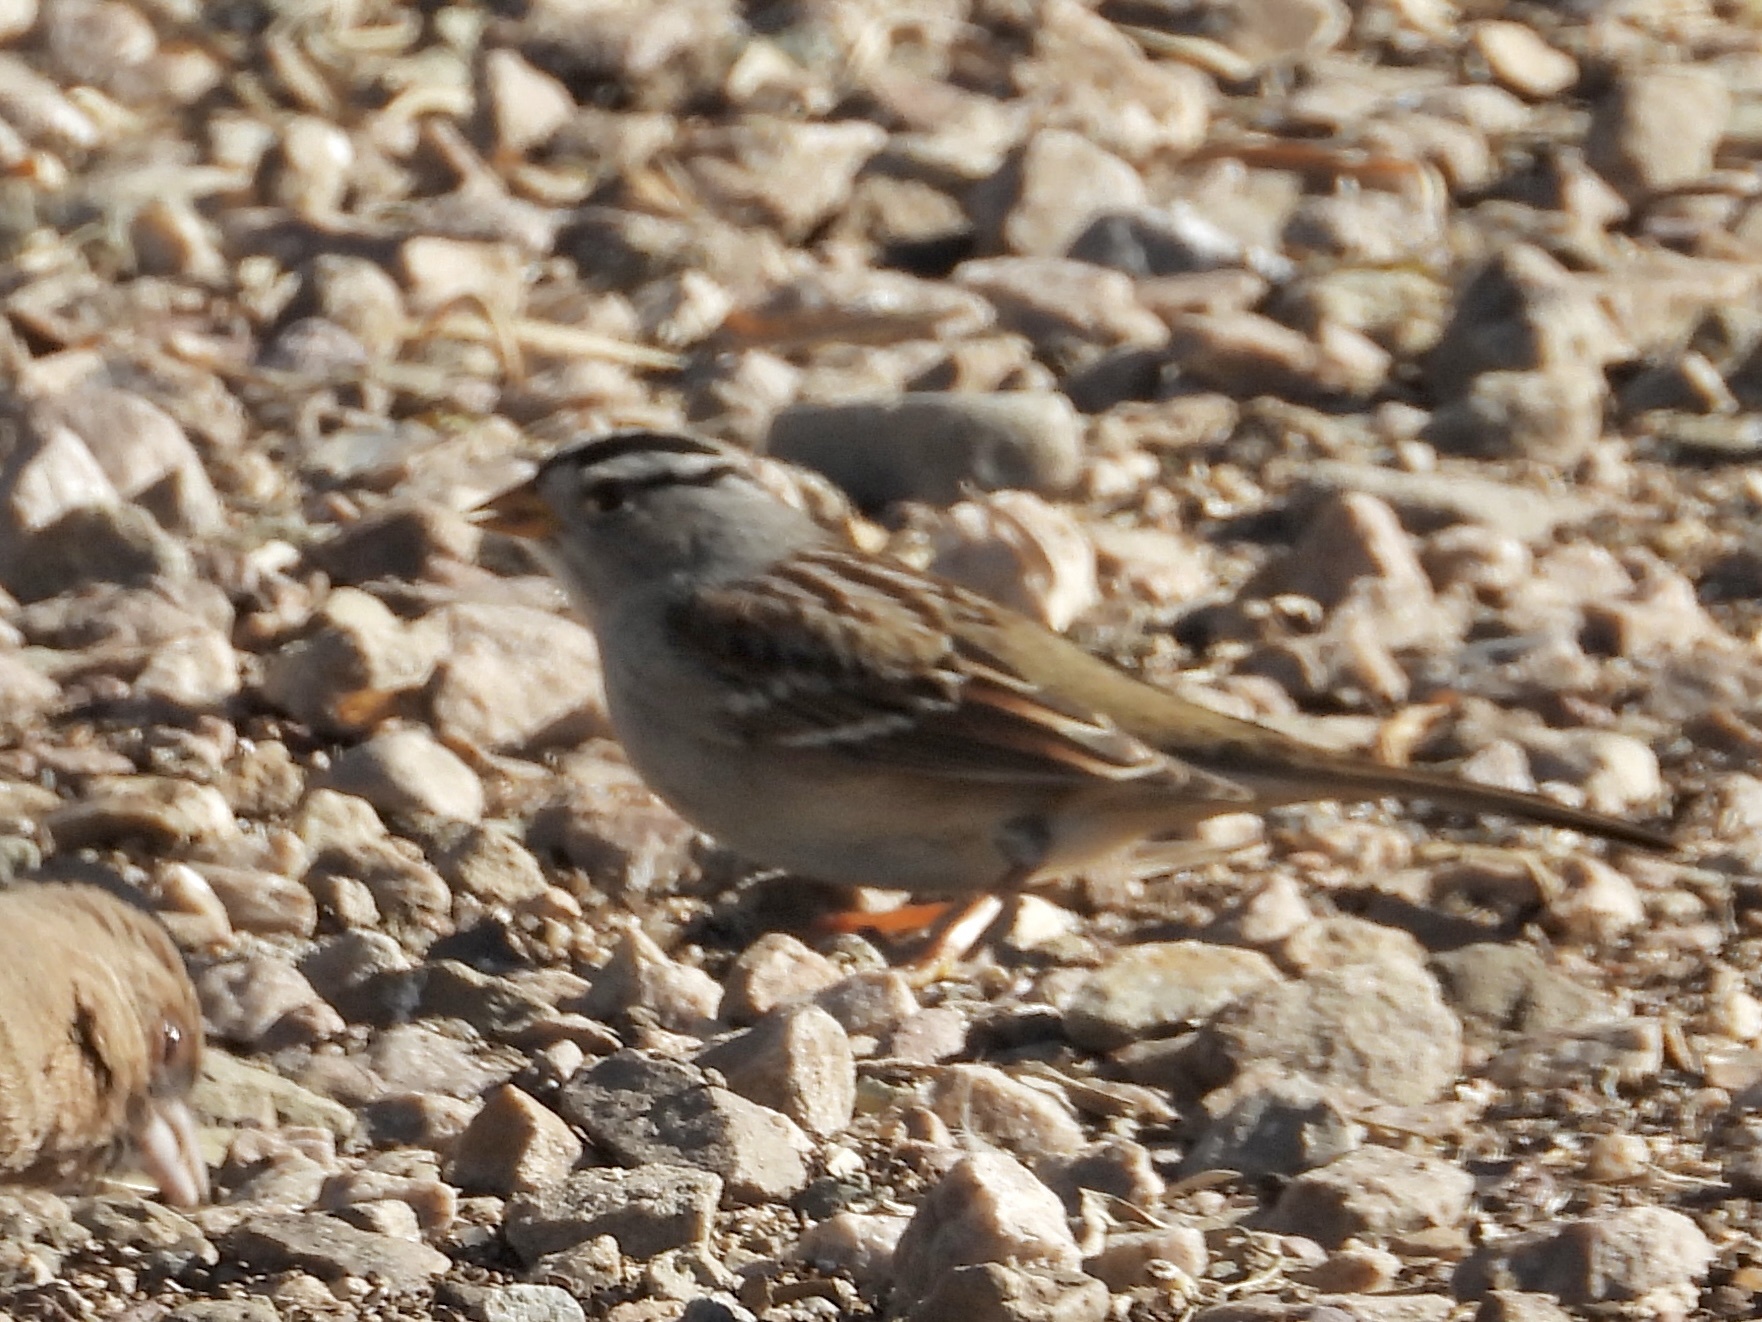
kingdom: Animalia
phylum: Chordata
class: Aves
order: Passeriformes
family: Passerellidae
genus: Zonotrichia
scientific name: Zonotrichia leucophrys
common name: White-crowned sparrow
